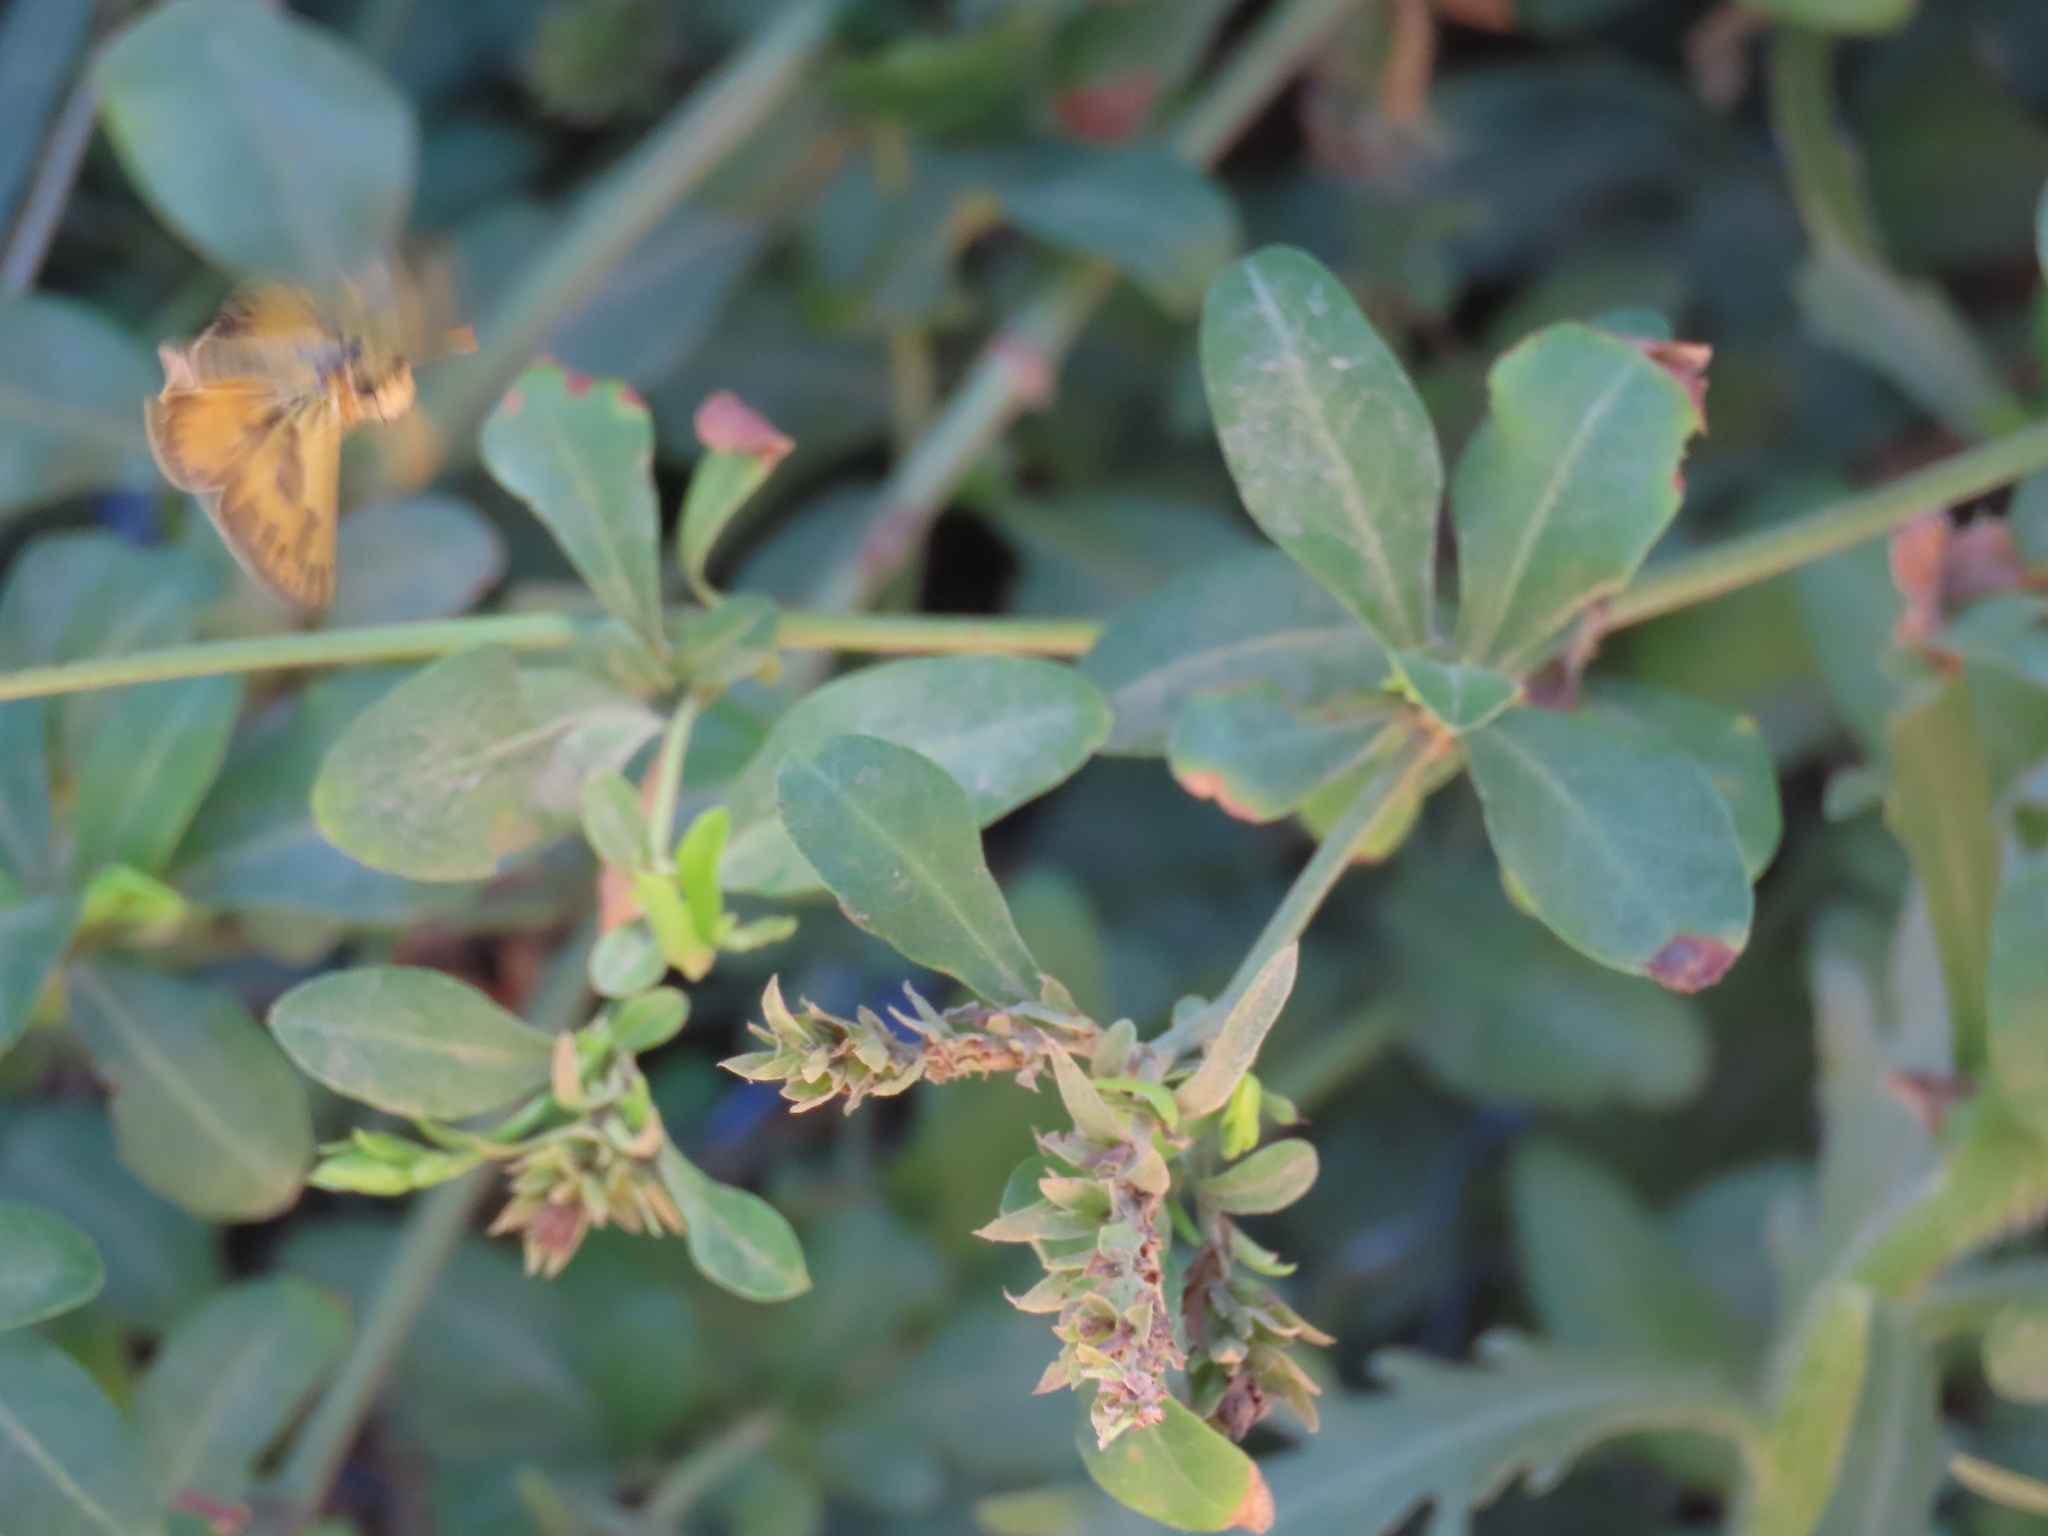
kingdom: Animalia
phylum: Arthropoda
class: Insecta
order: Lepidoptera
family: Hesperiidae
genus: Hylephila
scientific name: Hylephila phyleus
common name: Fiery skipper
